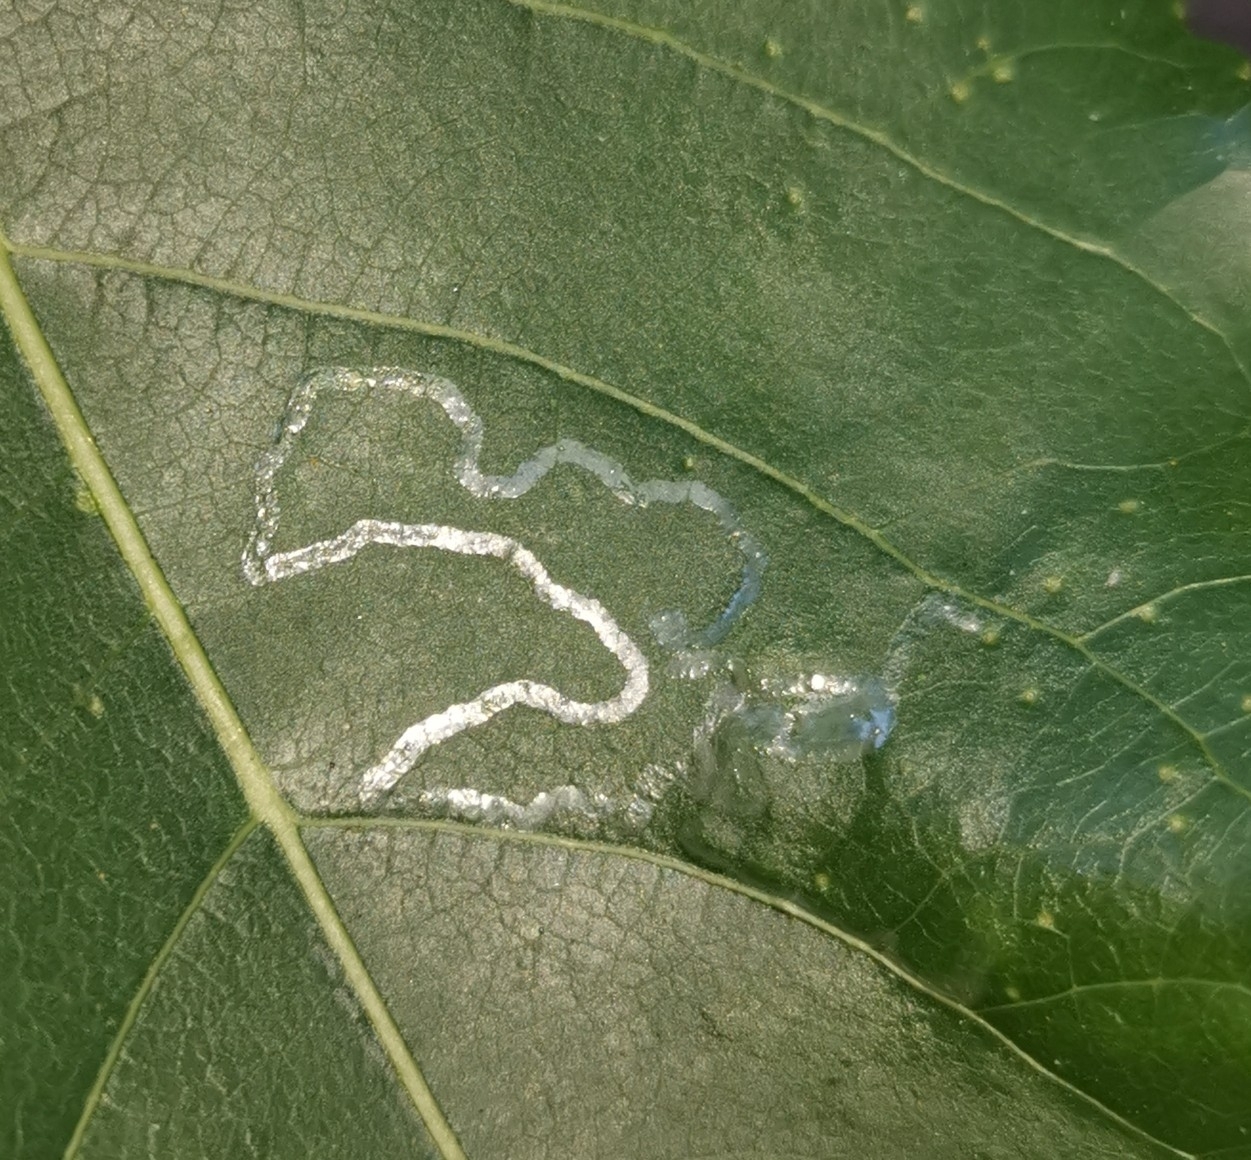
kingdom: Animalia
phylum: Arthropoda
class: Insecta
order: Lepidoptera
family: Gracillariidae
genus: Phyllocnistis
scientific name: Phyllocnistis unipunctella
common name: Poplar bent-wing
